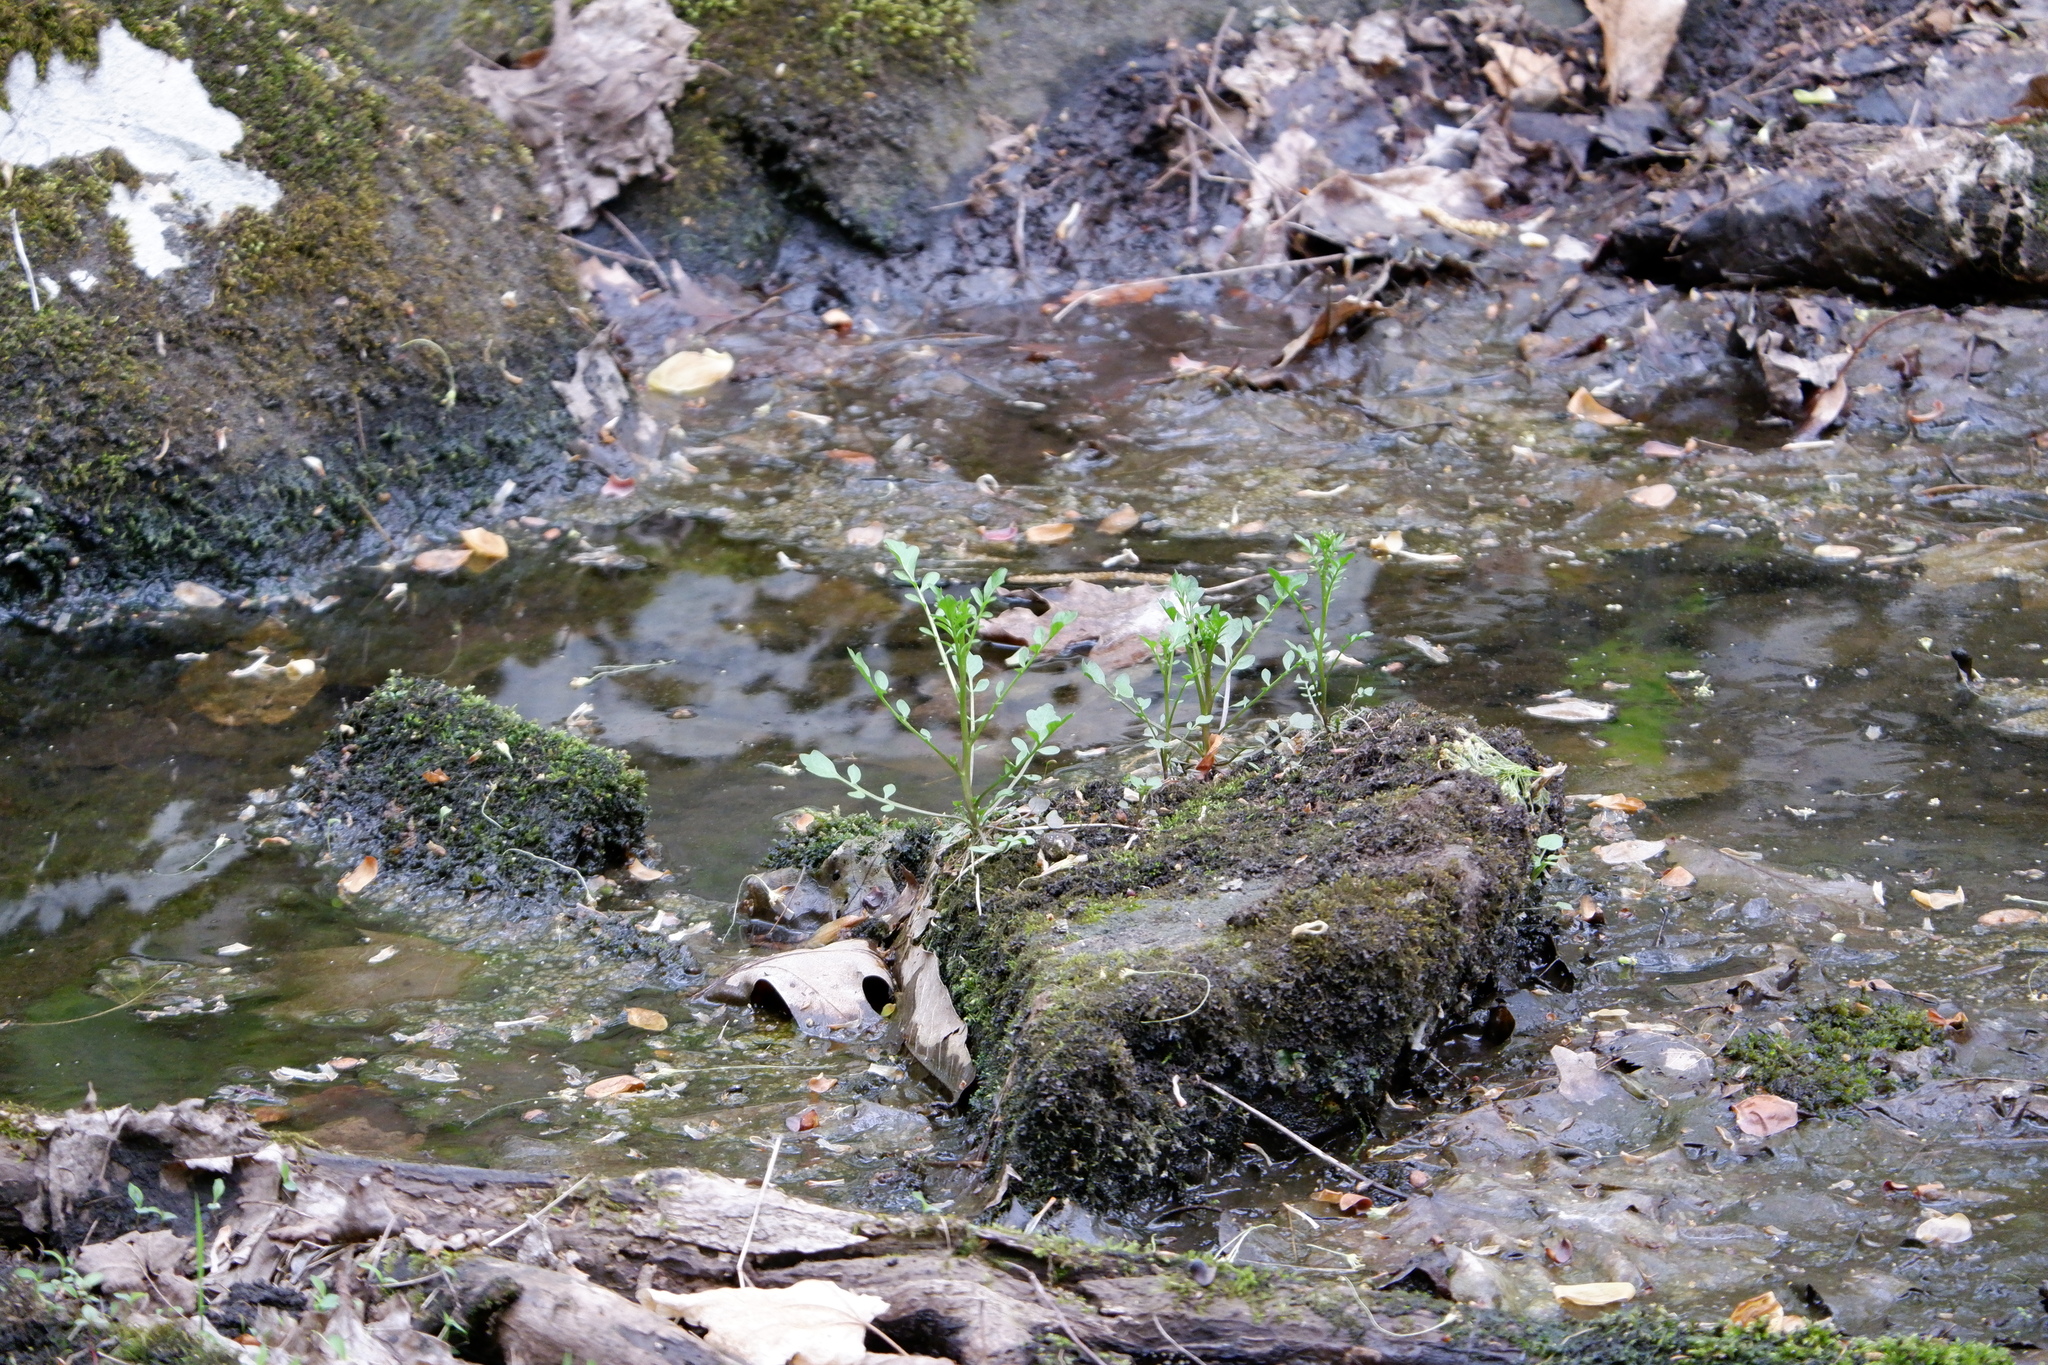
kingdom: Plantae
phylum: Tracheophyta
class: Magnoliopsida
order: Brassicales
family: Brassicaceae
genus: Cardamine
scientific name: Cardamine pensylvanica
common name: Pennsylvania bittercress
